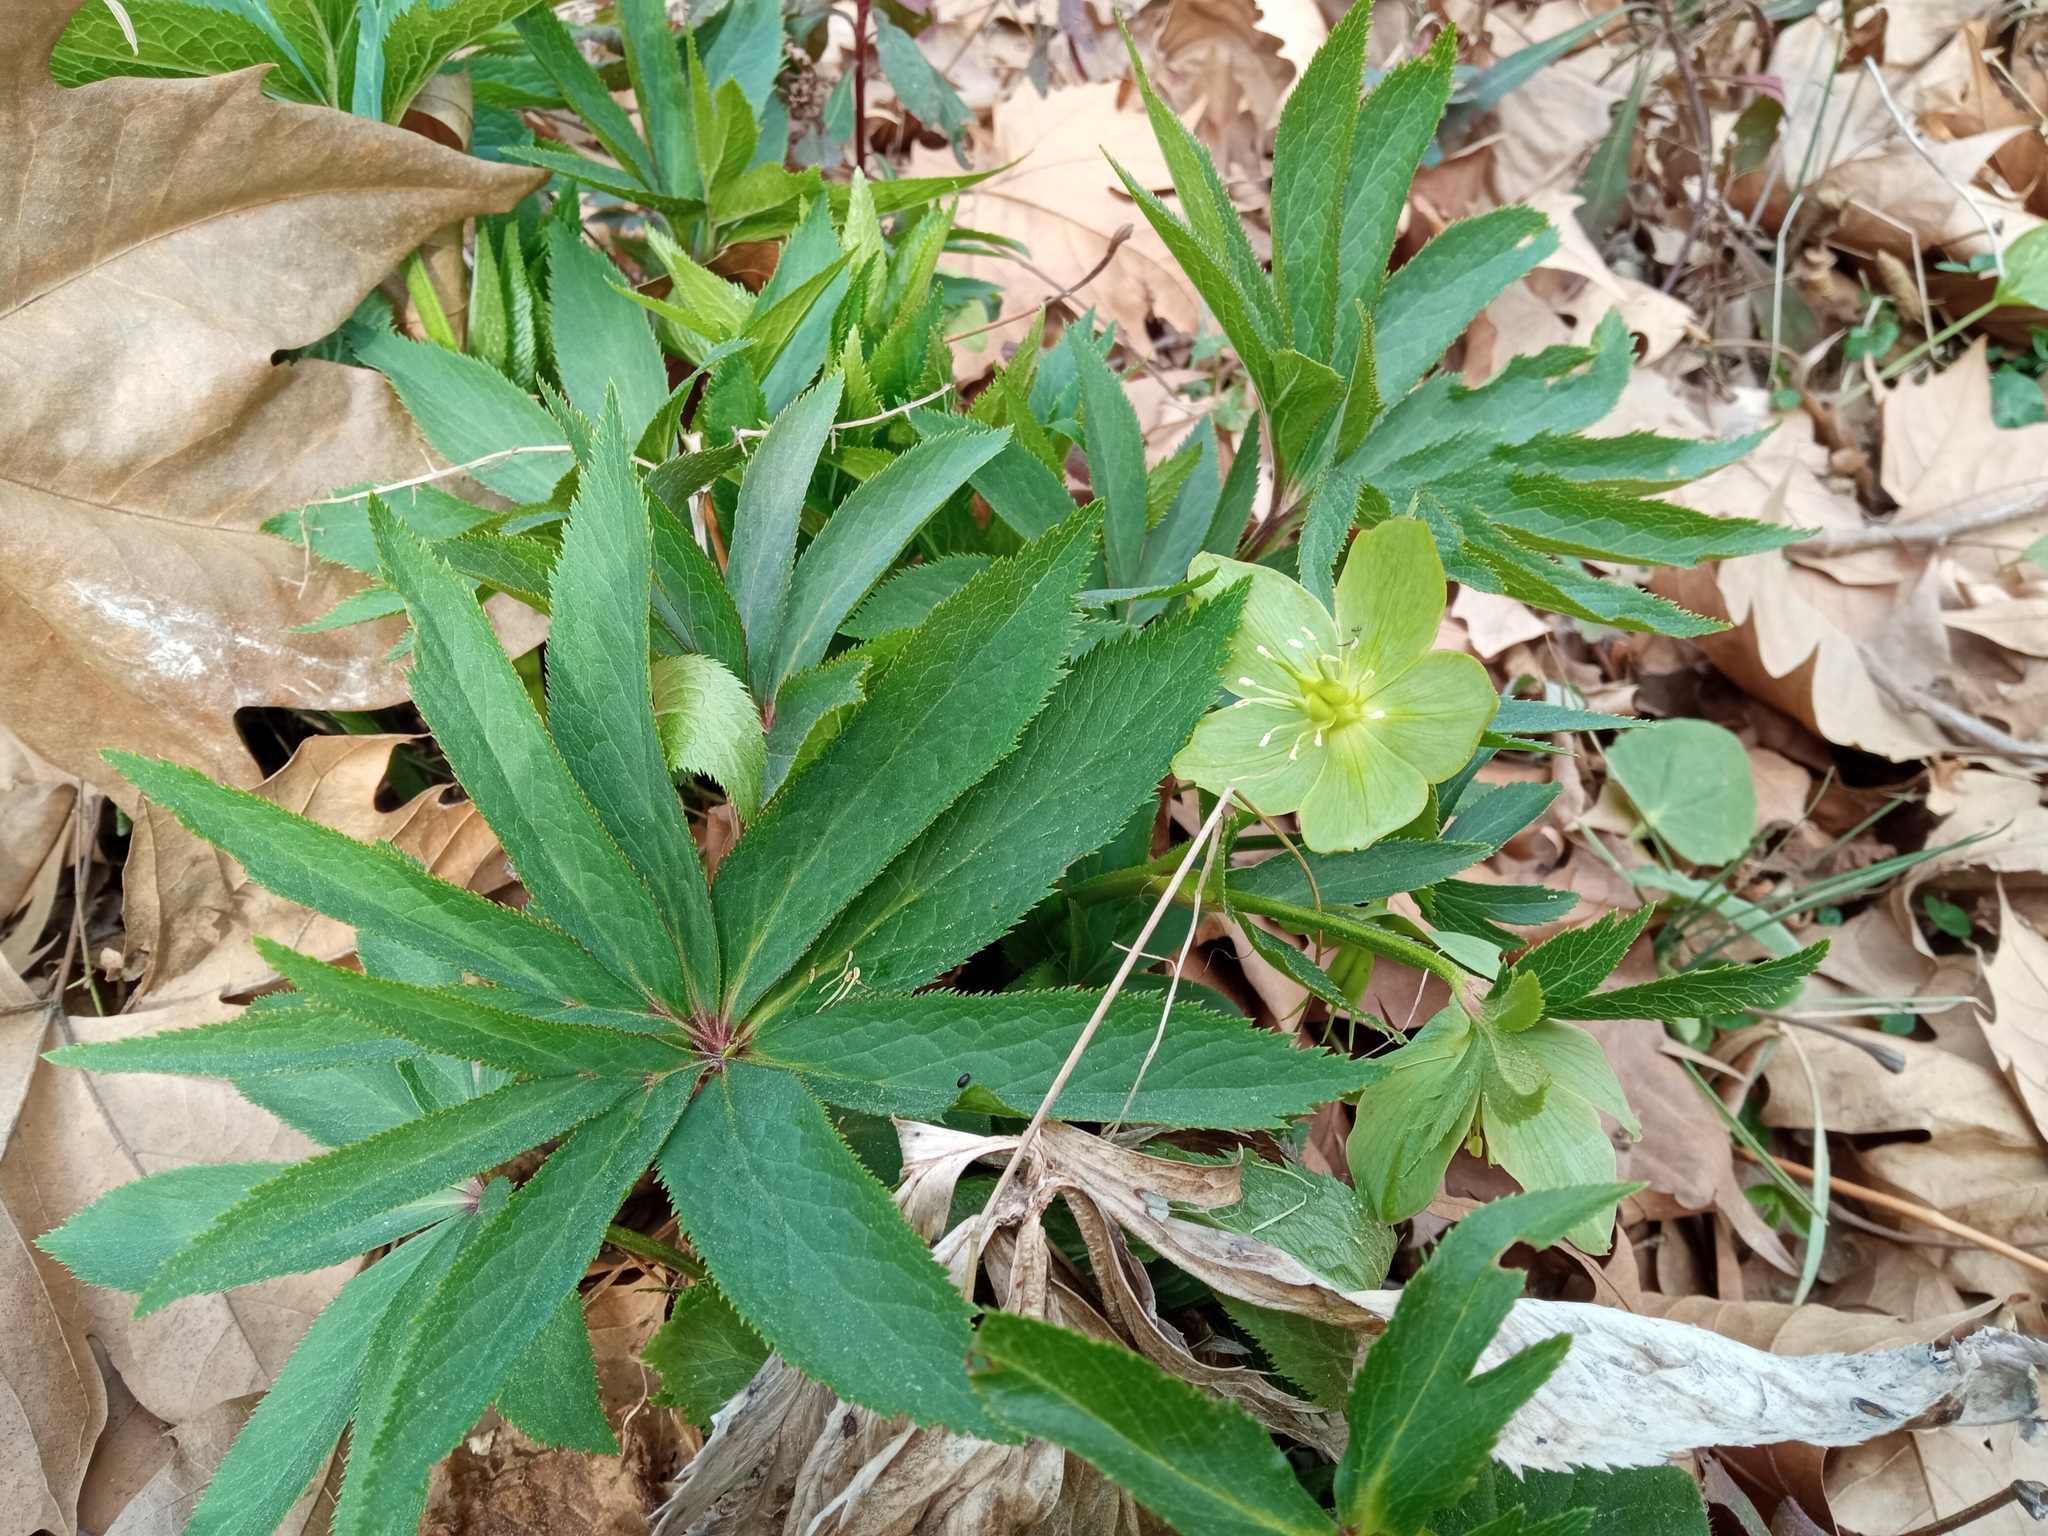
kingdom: Plantae
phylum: Tracheophyta
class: Magnoliopsida
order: Ranunculales
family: Ranunculaceae
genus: Helleborus
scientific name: Helleborus viridis
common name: Green hellebore
